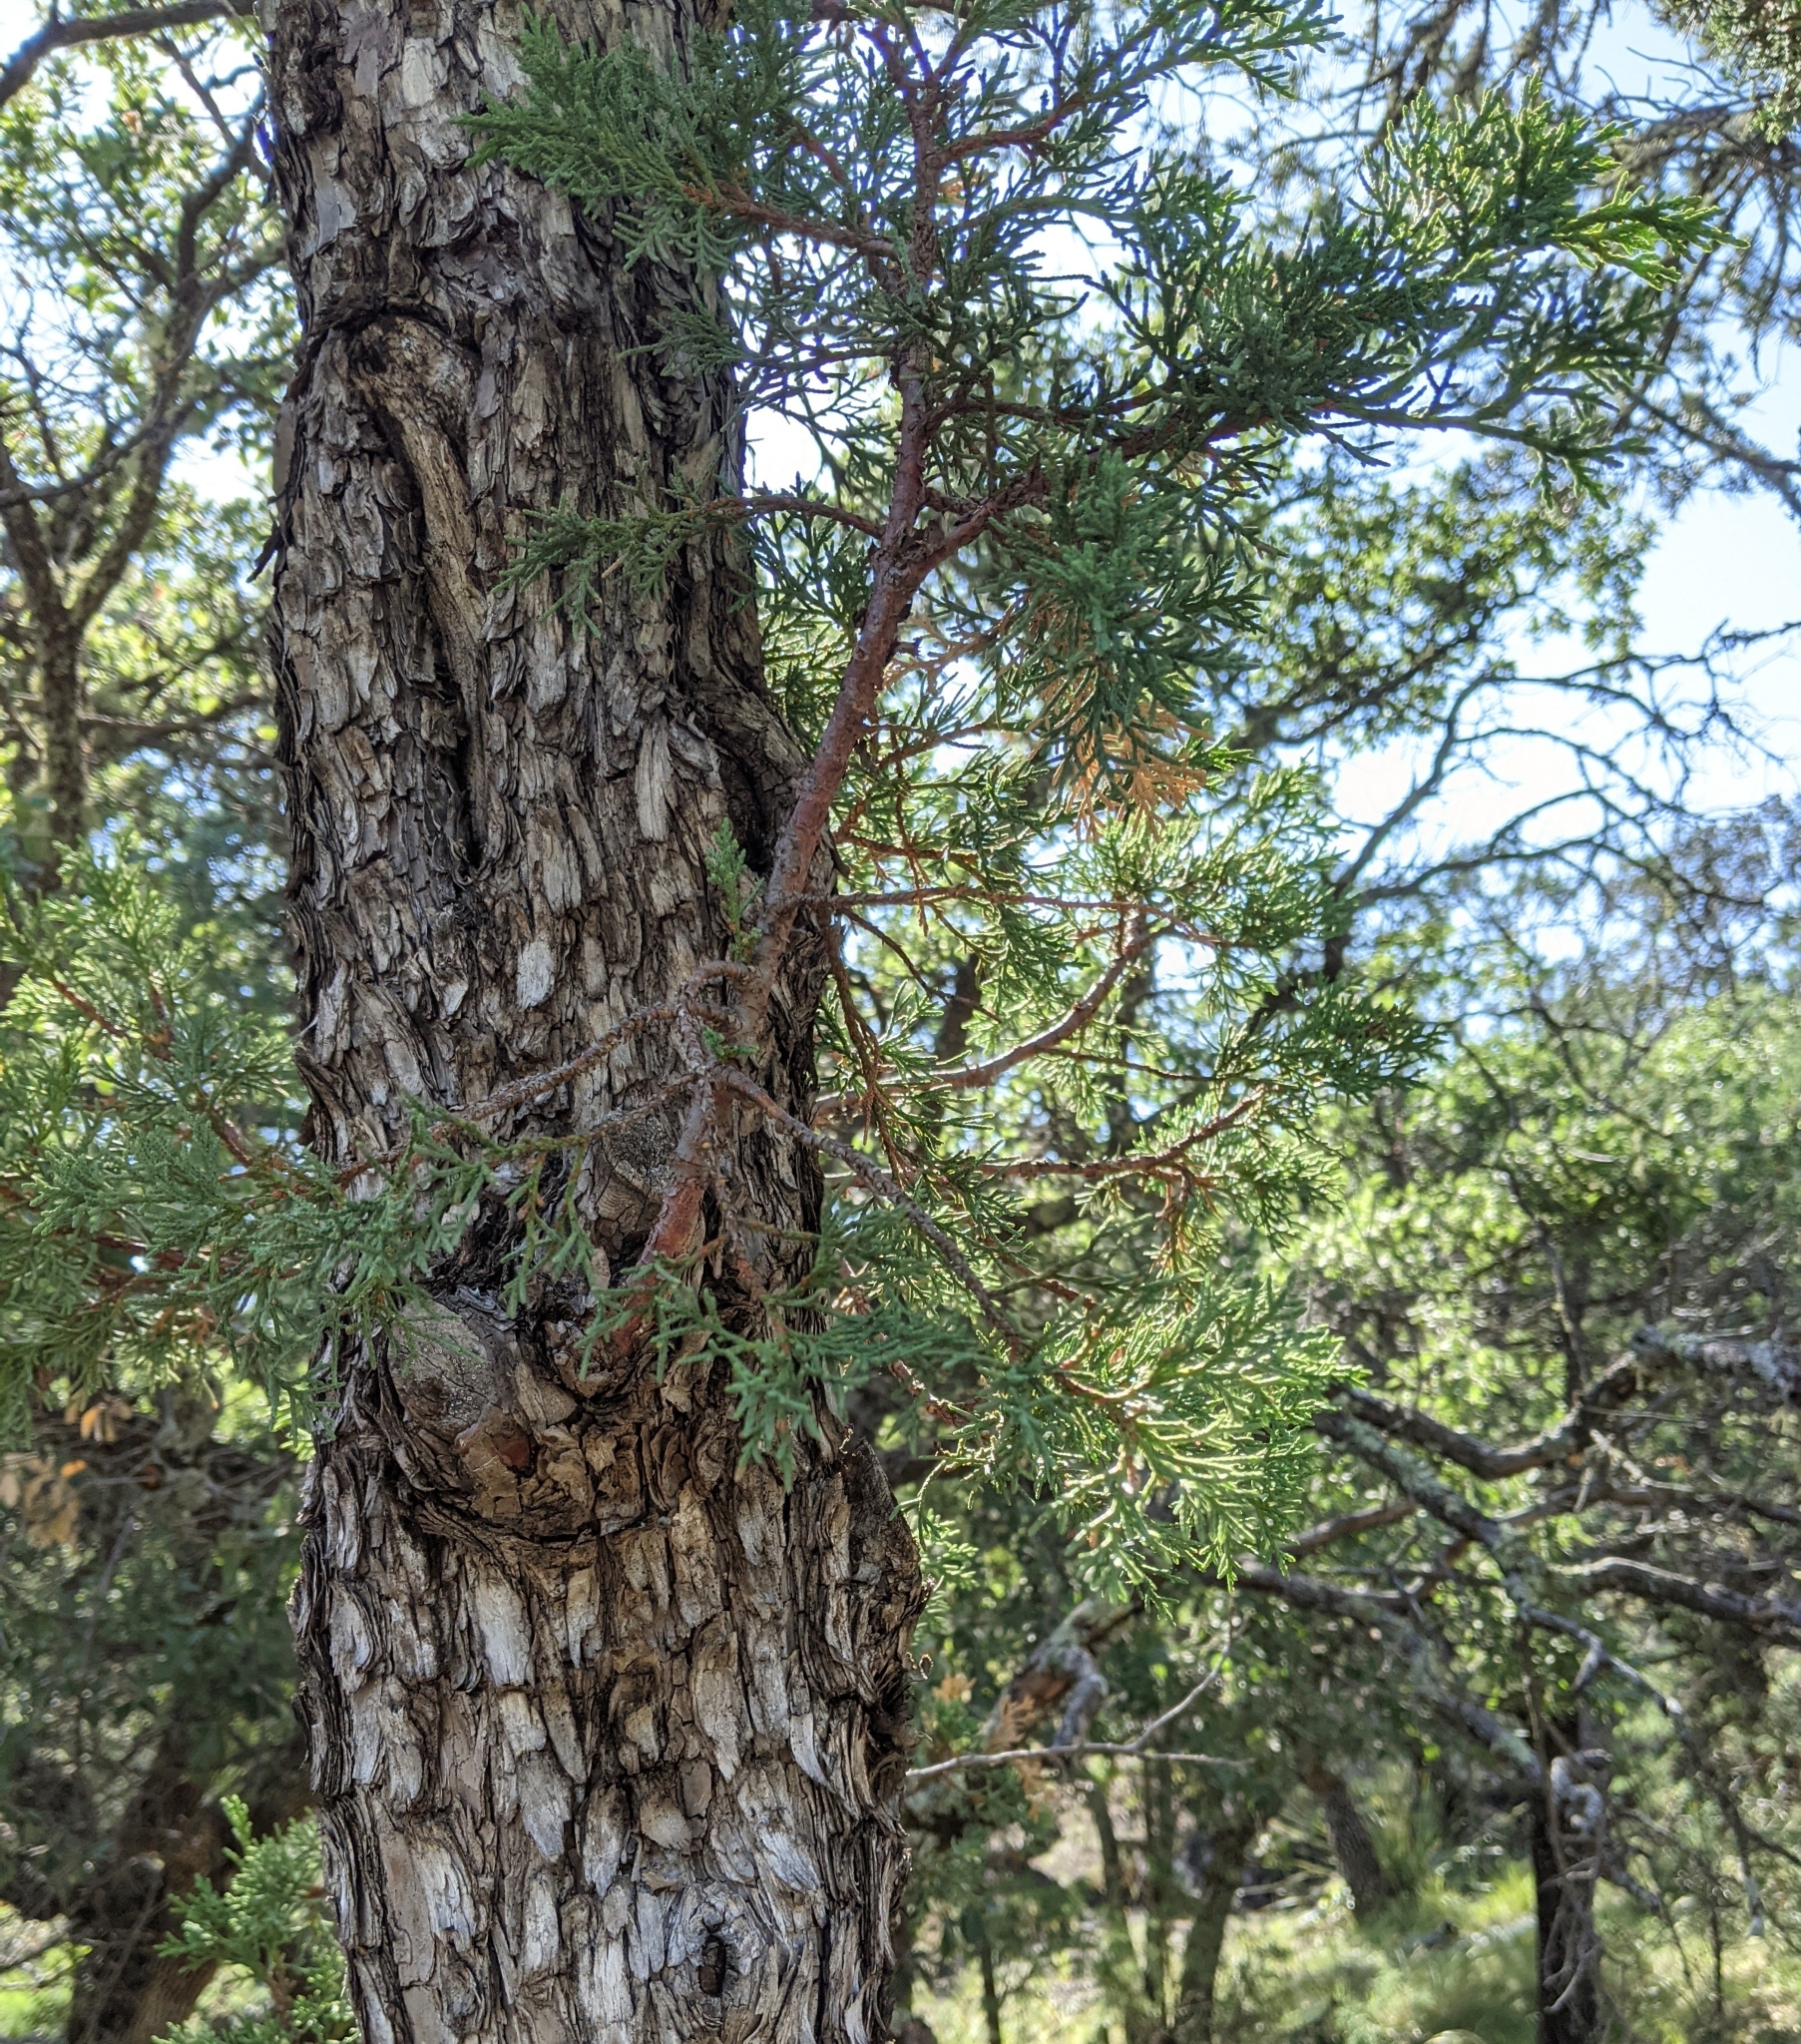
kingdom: Plantae
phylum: Tracheophyta
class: Pinopsida
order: Pinales
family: Cupressaceae
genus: Juniperus
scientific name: Juniperus deppeana
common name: Alligator juniper
